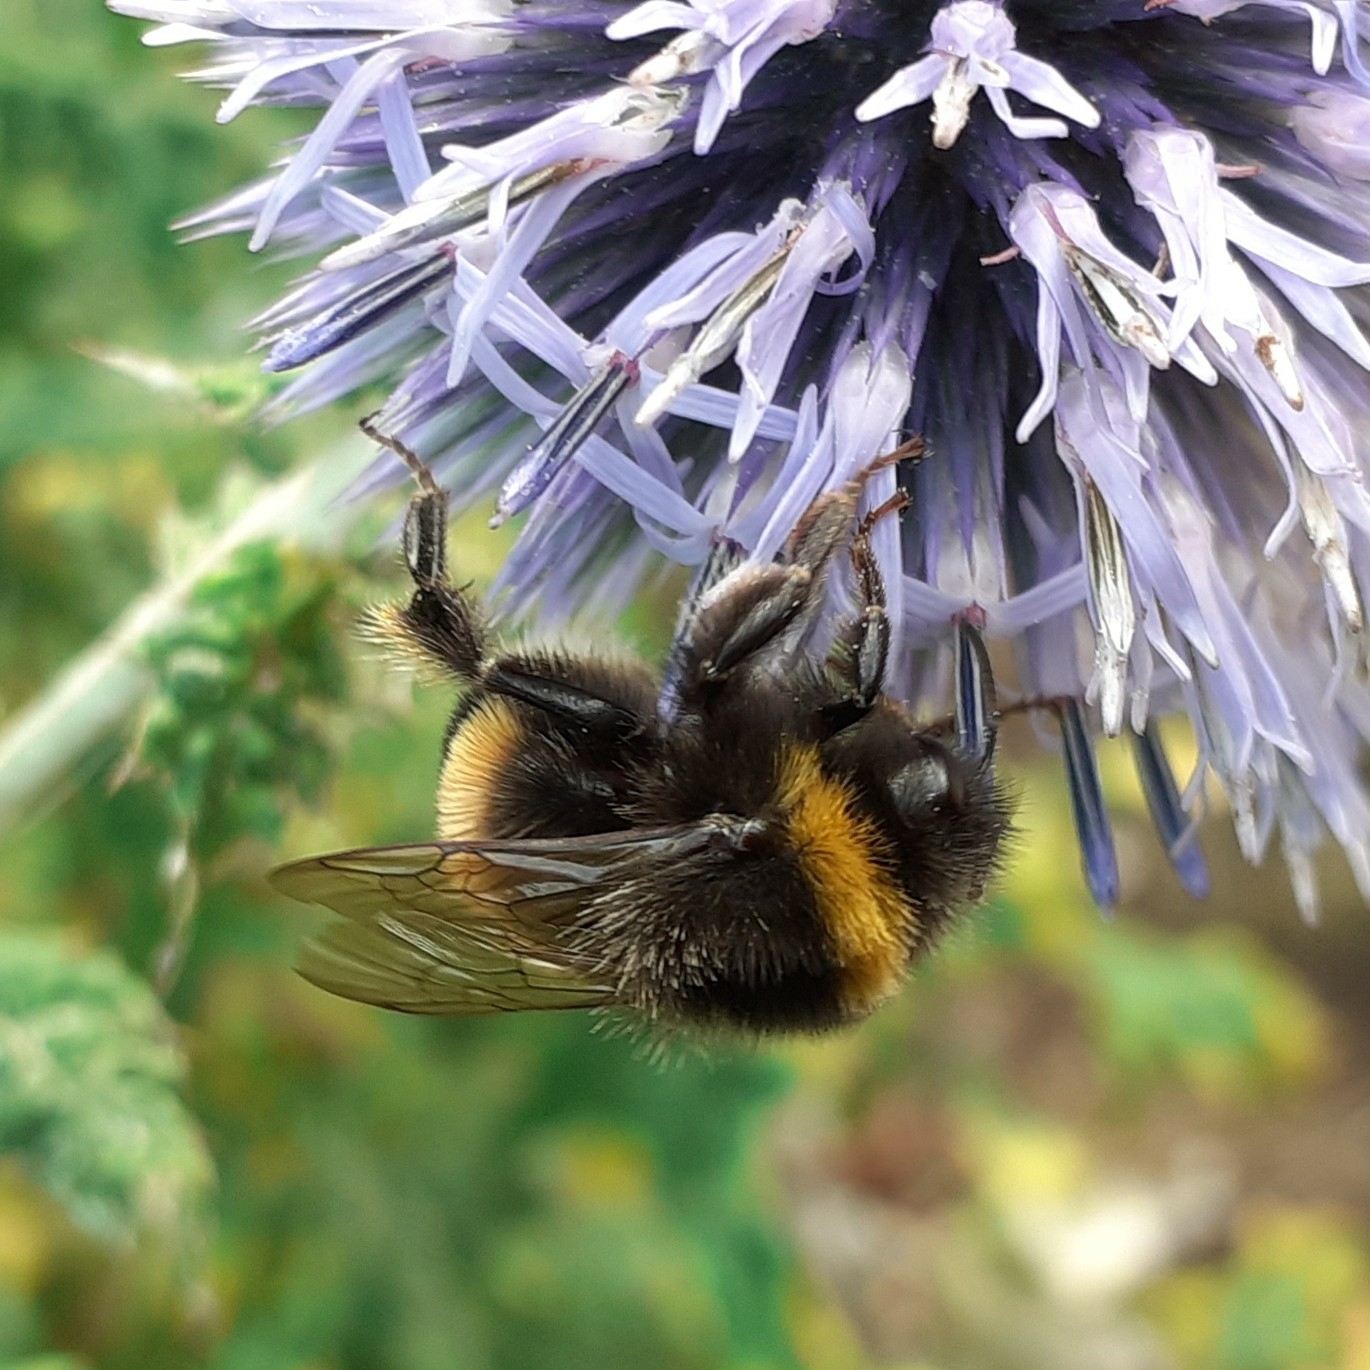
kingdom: Animalia
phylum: Arthropoda
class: Insecta
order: Hymenoptera
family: Apidae
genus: Bombus
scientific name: Bombus terrestris
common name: Buff-tailed bumblebee
